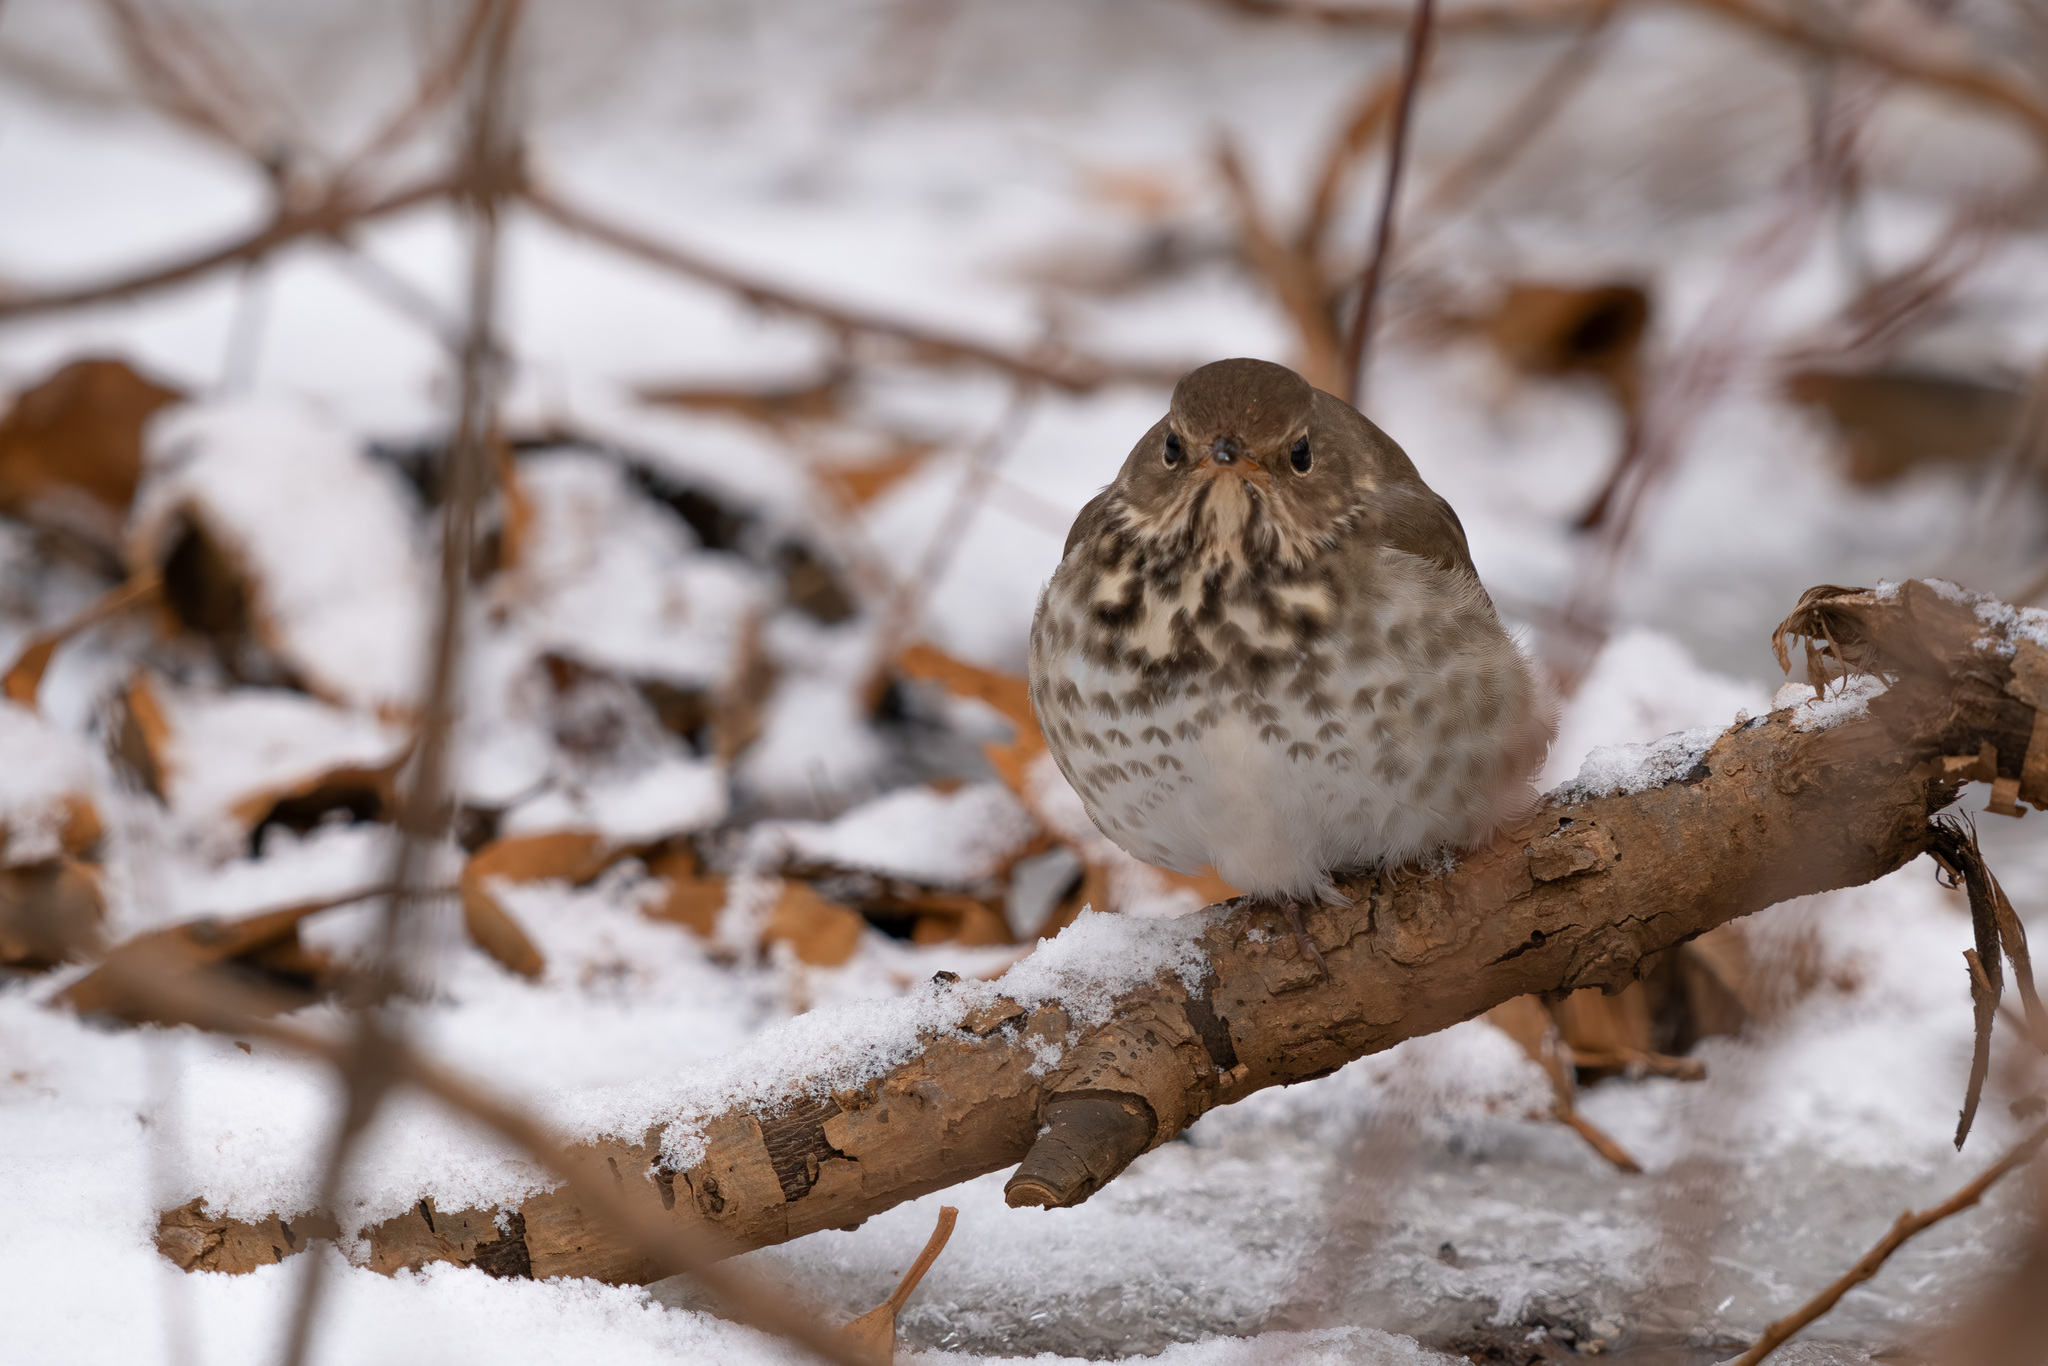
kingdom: Animalia
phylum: Chordata
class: Aves
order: Passeriformes
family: Turdidae
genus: Catharus
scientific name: Catharus guttatus
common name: Hermit thrush
